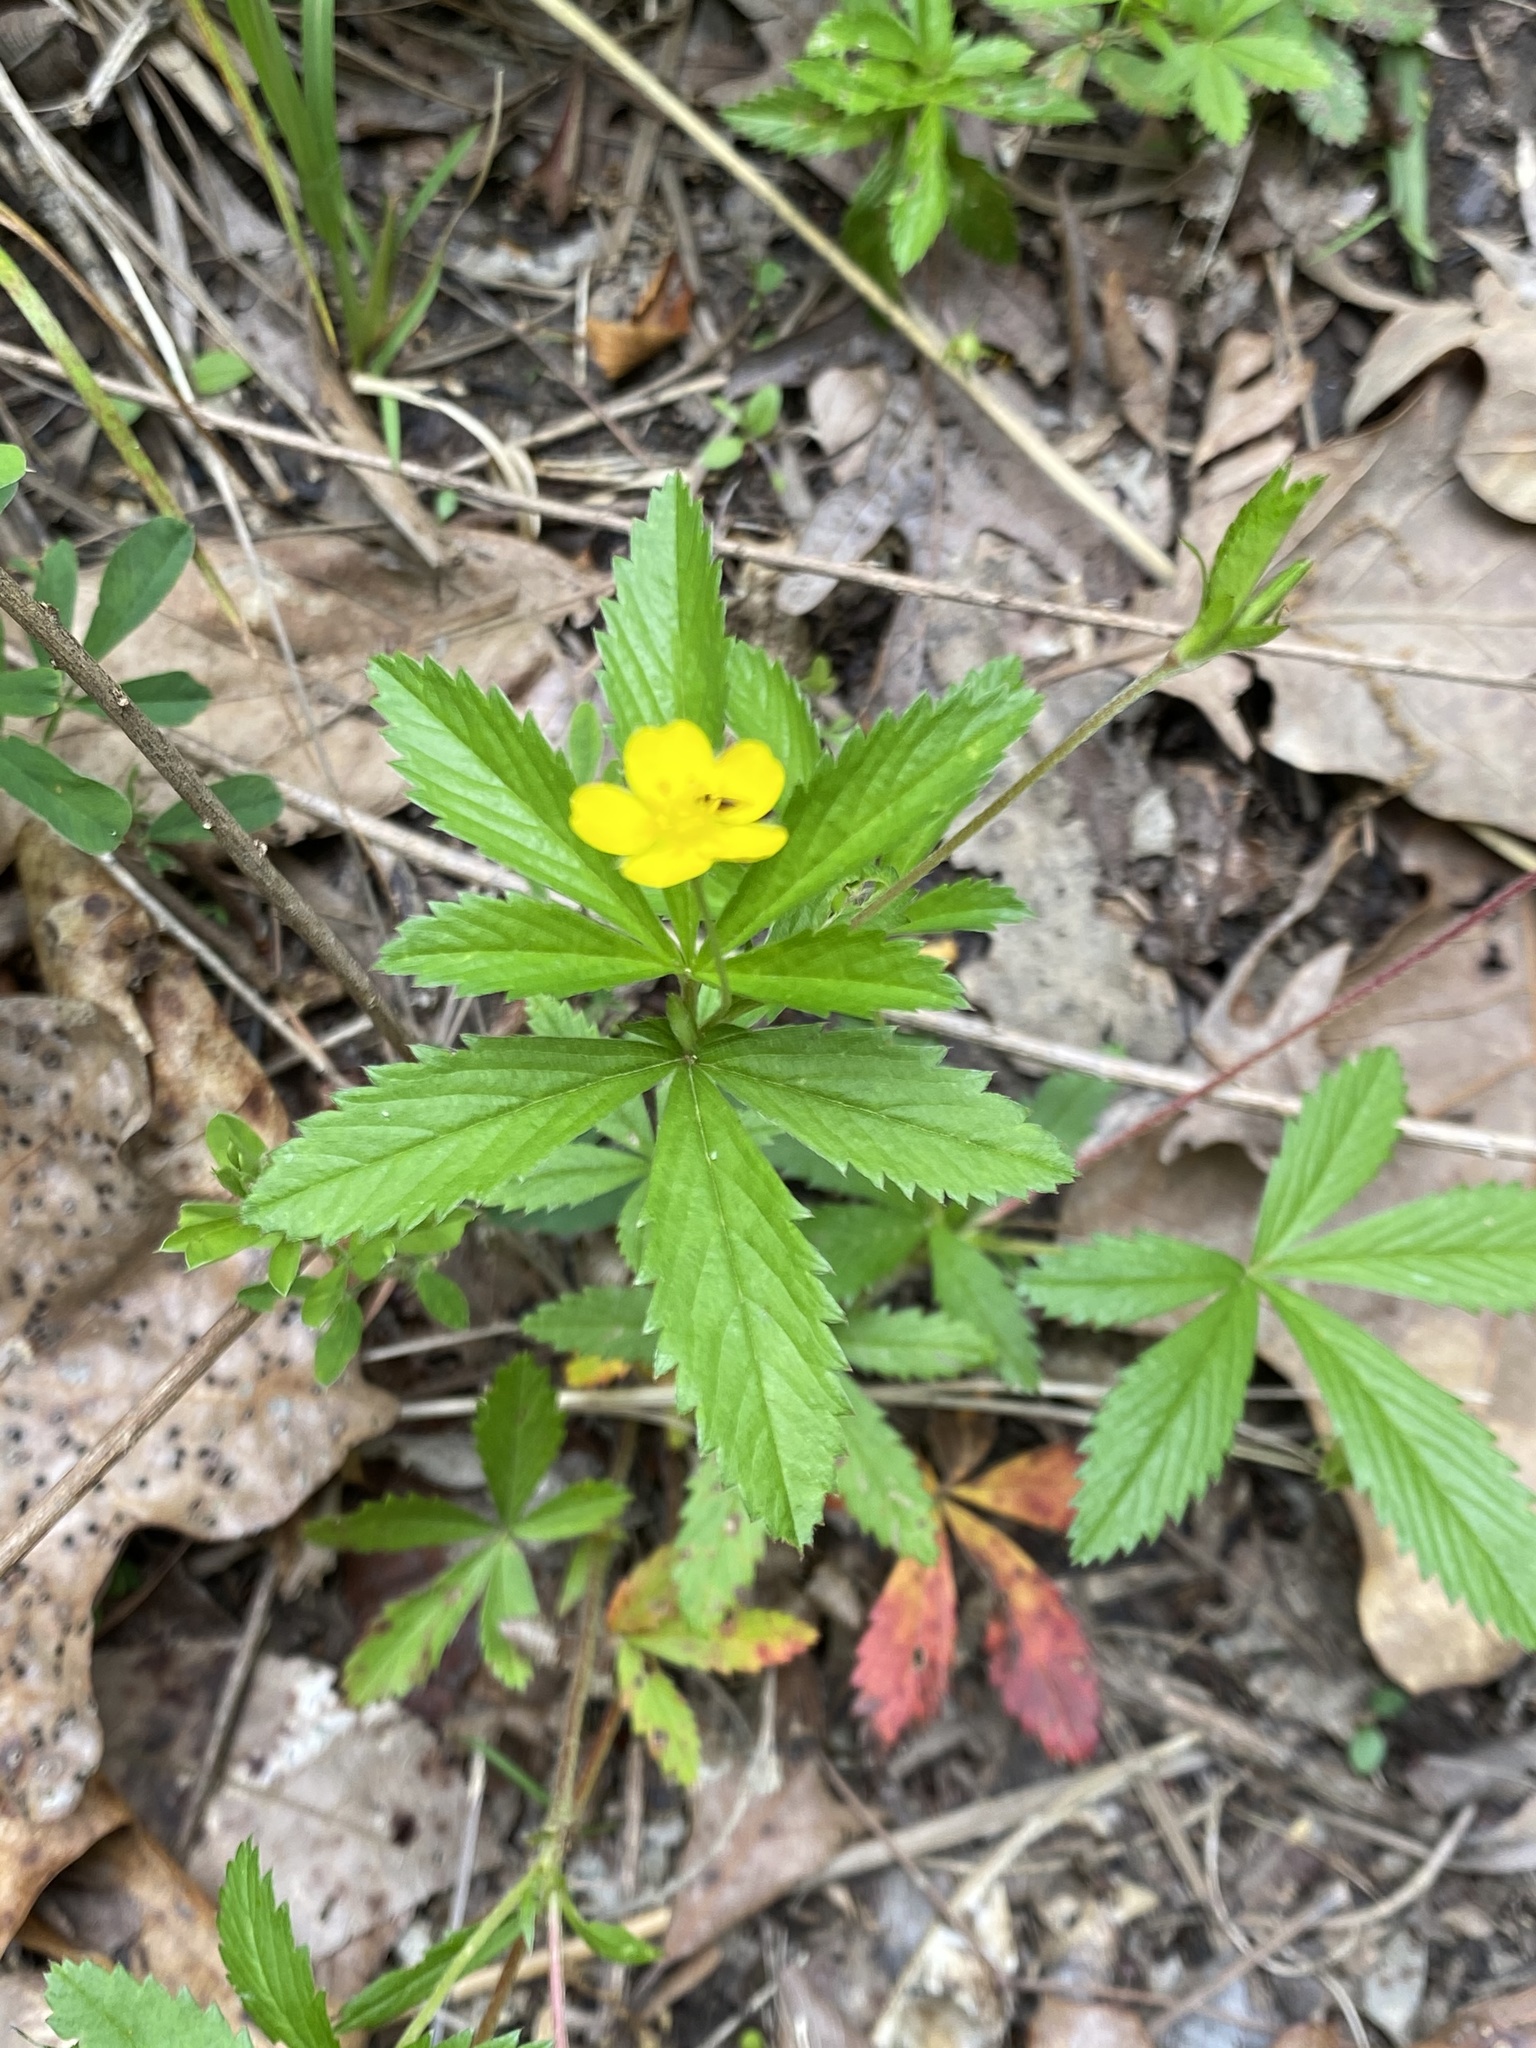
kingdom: Plantae
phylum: Tracheophyta
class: Magnoliopsida
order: Rosales
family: Rosaceae
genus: Potentilla
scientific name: Potentilla simplex
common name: Old field cinquefoil
